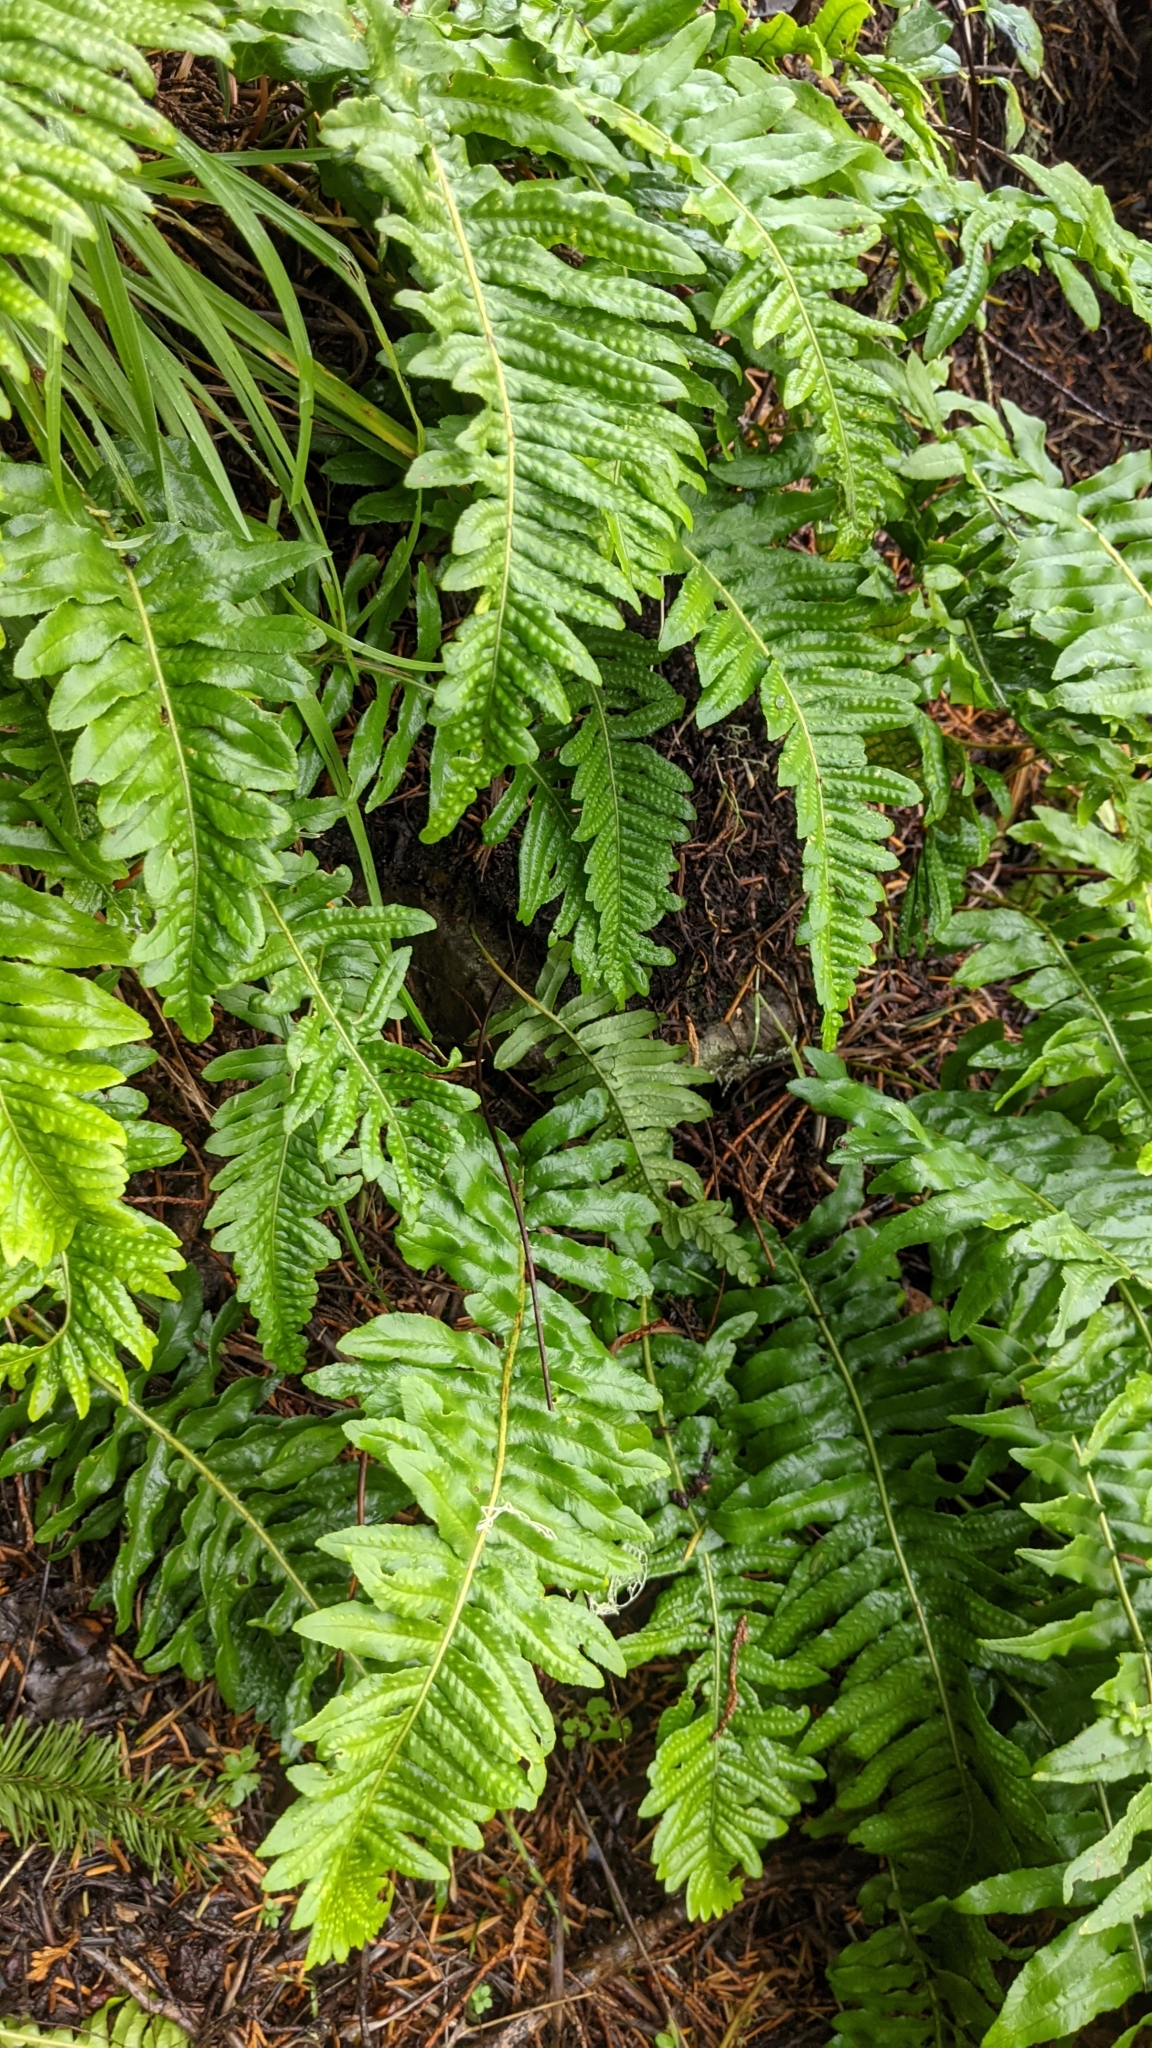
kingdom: Plantae
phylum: Tracheophyta
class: Polypodiopsida
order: Polypodiales
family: Polypodiaceae
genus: Polypodium
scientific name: Polypodium glycyrrhiza
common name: Licorice fern
